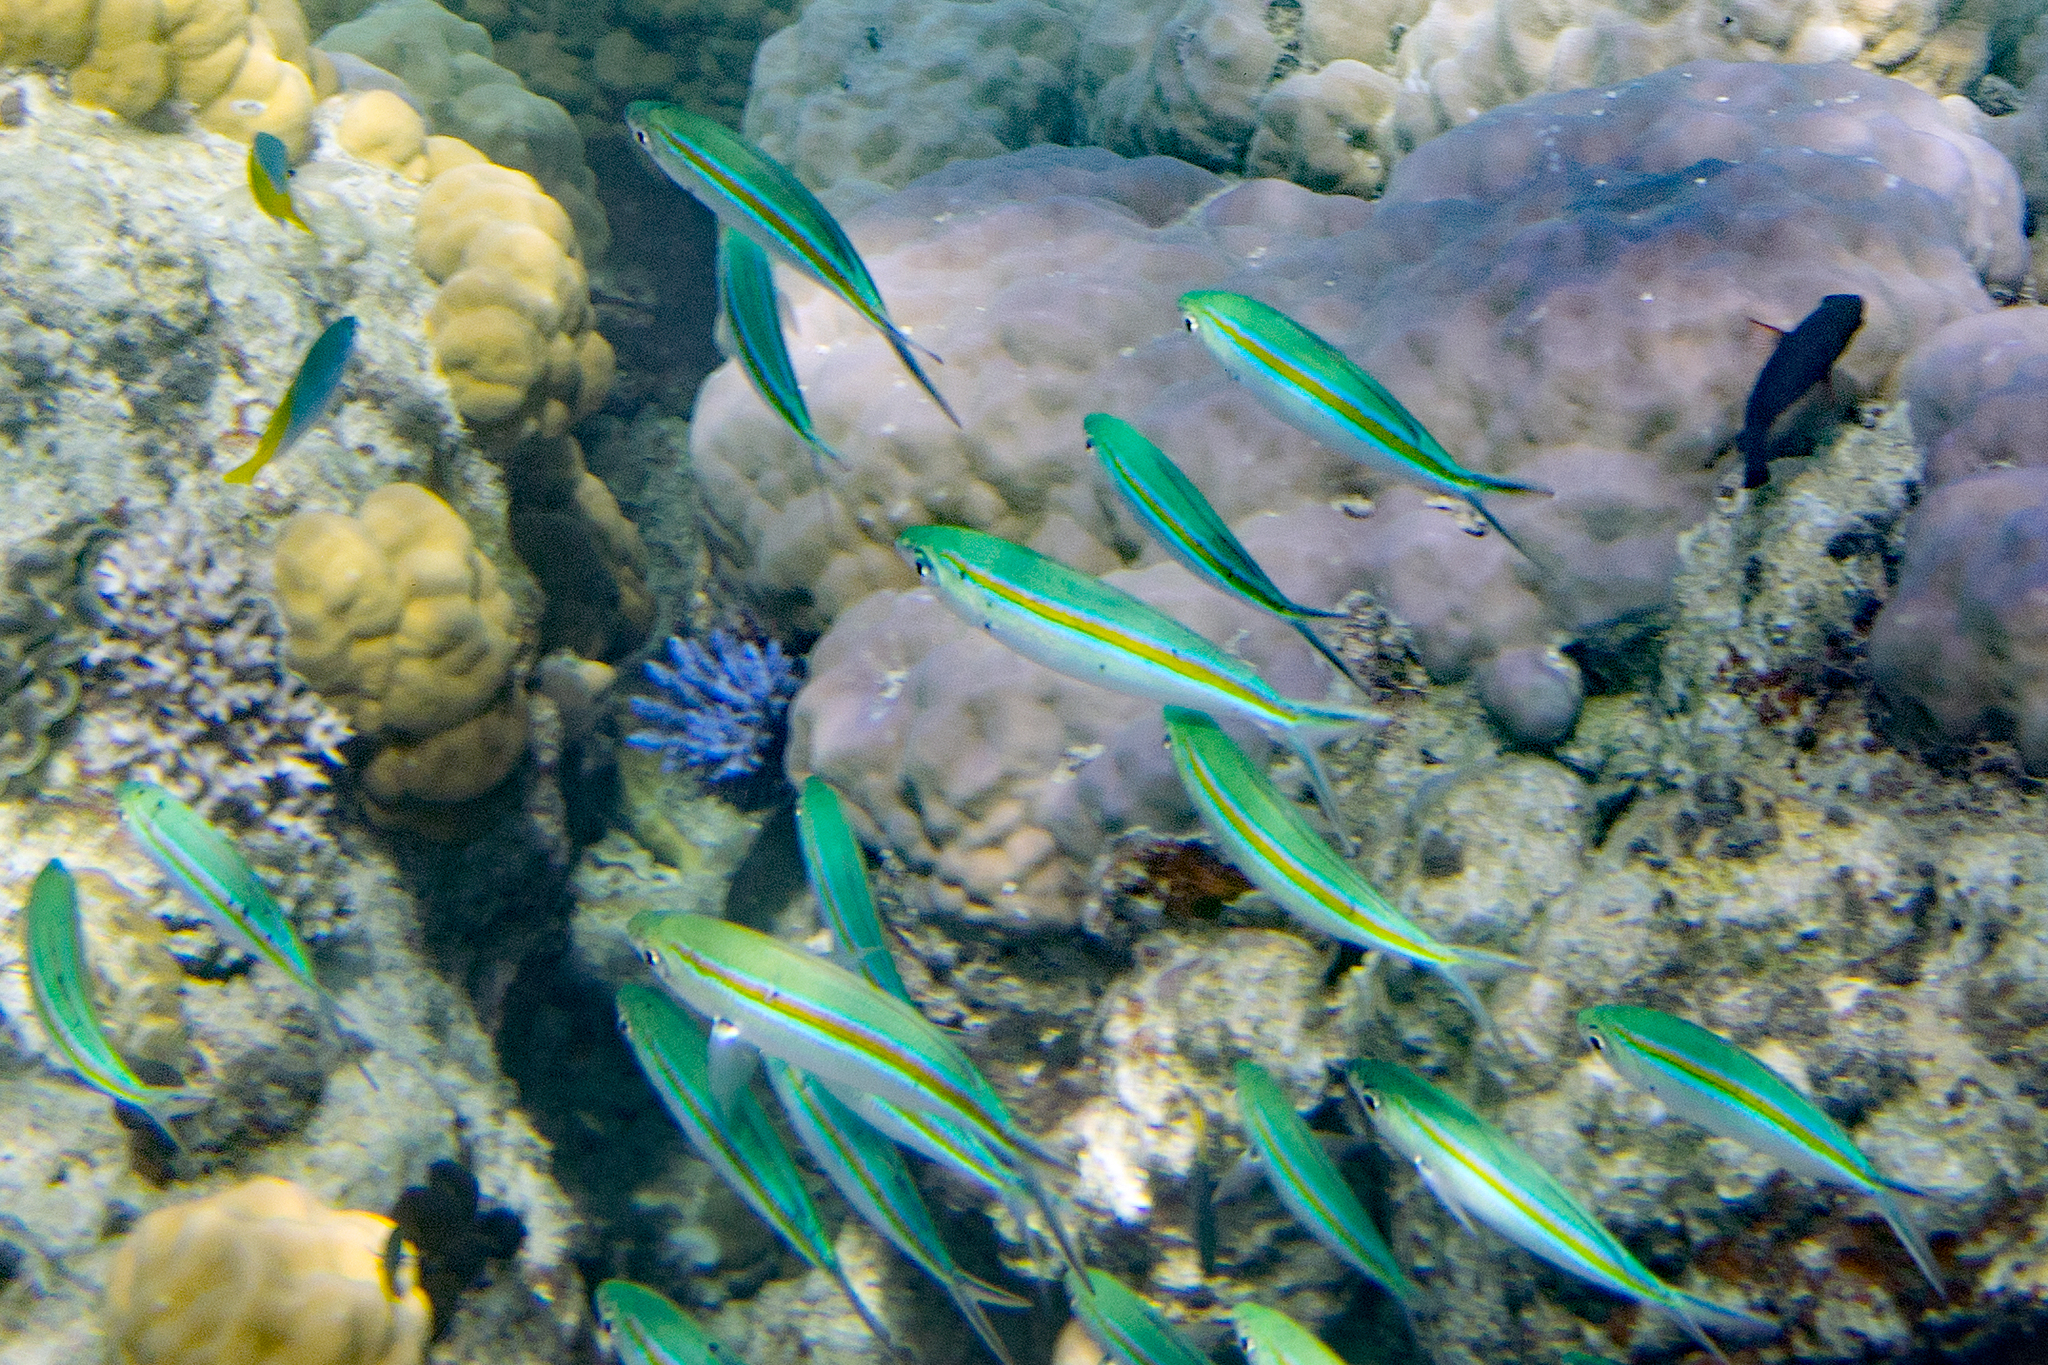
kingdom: Animalia
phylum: Chordata
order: Perciformes
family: Caesionidae
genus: Caesio
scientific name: Caesio caerulaurea
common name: Blue and gold fusilier
